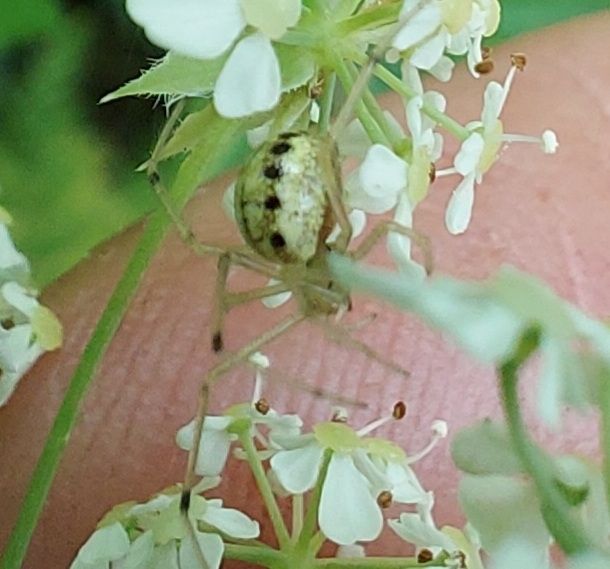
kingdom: Animalia
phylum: Arthropoda
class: Arachnida
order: Araneae
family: Theridiidae
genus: Enoplognatha
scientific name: Enoplognatha ovata
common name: Common candy-striped spider
